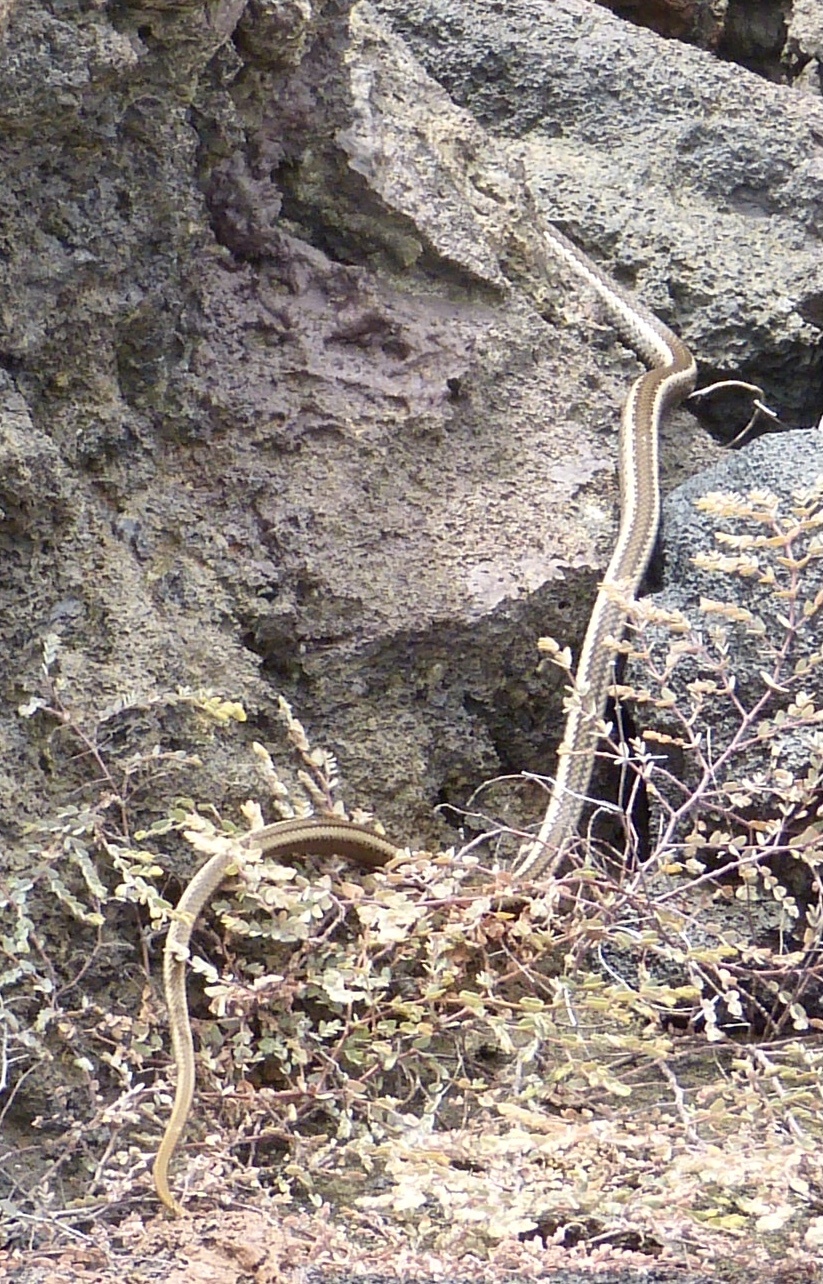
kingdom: Animalia
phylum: Chordata
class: Squamata
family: Colubridae
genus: Pseudalsophis
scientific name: Pseudalsophis hephaestus
